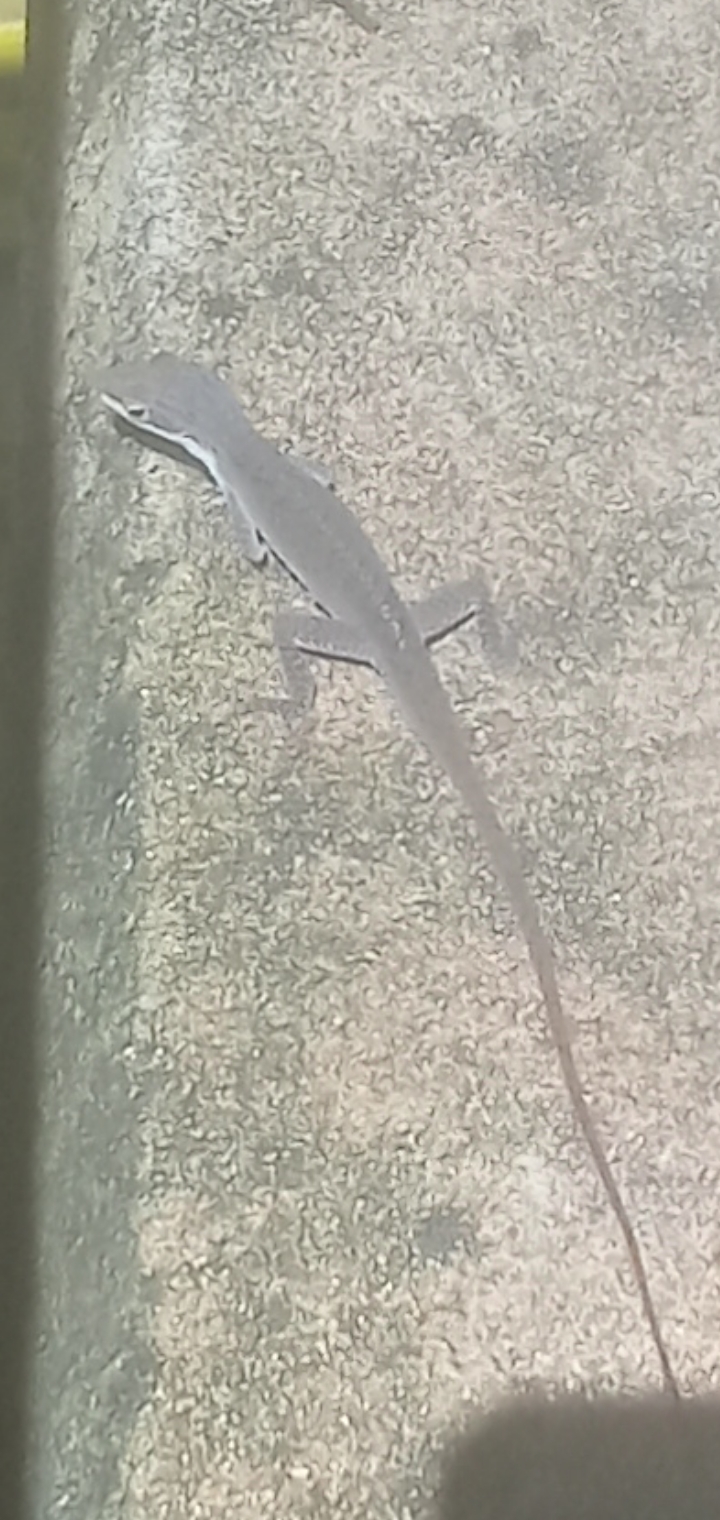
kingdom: Animalia
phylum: Chordata
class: Squamata
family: Dactyloidae
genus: Anolis
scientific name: Anolis carolinensis
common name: Green anole
